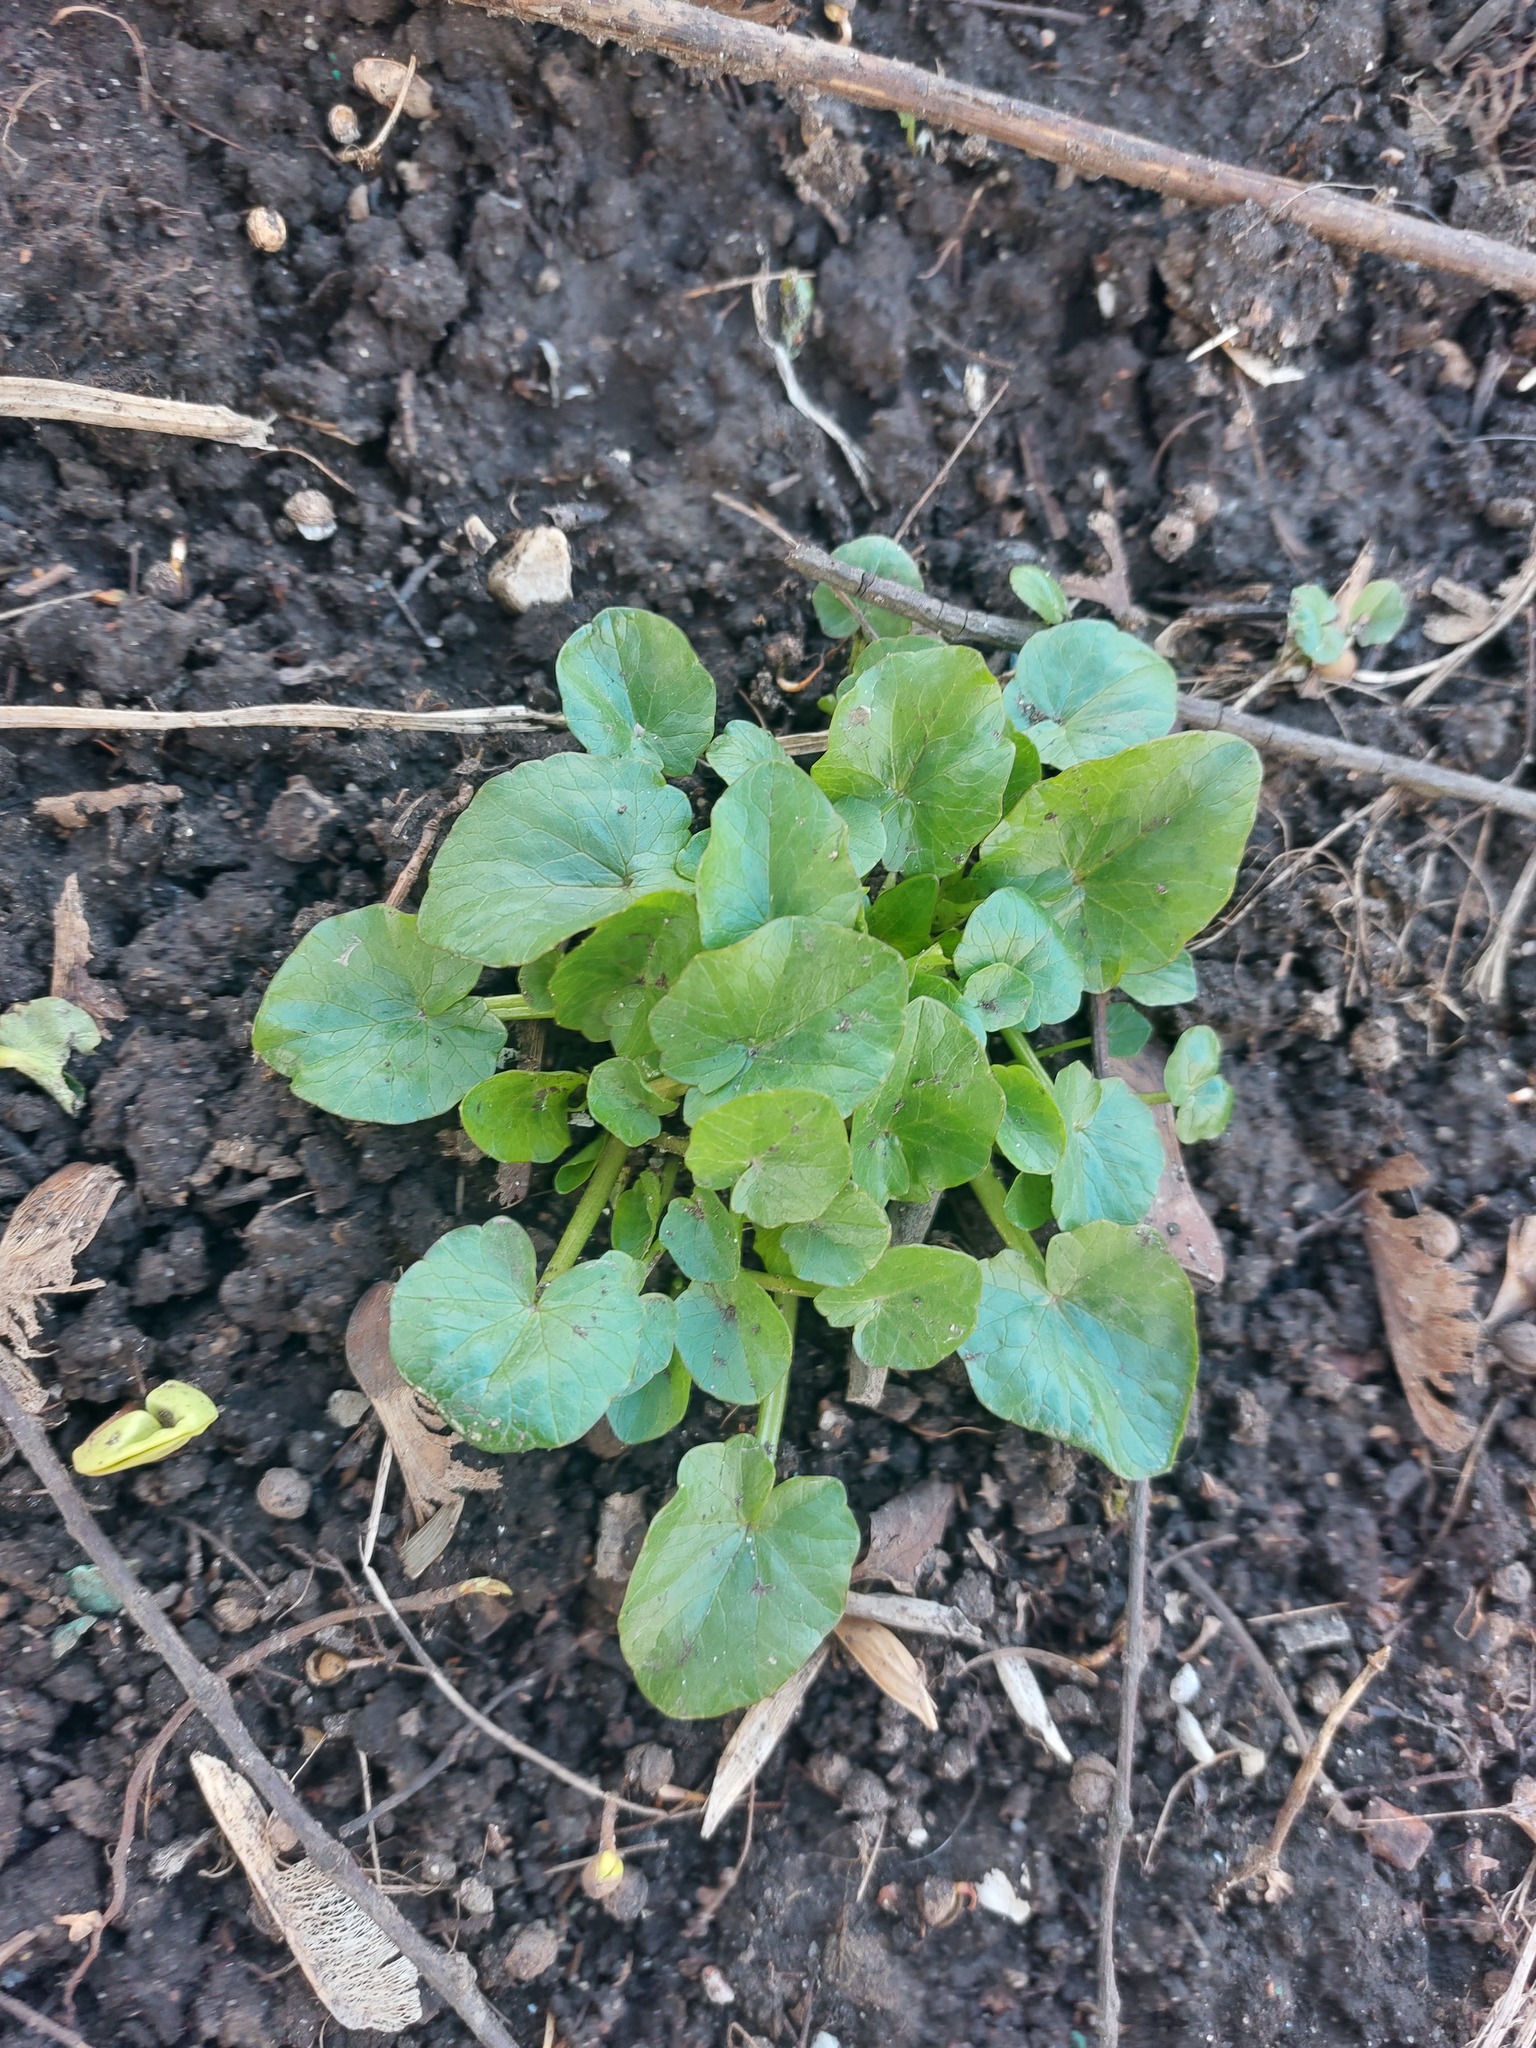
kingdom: Plantae
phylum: Tracheophyta
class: Magnoliopsida
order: Ranunculales
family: Ranunculaceae
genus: Ficaria
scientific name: Ficaria verna
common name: Lesser celandine
